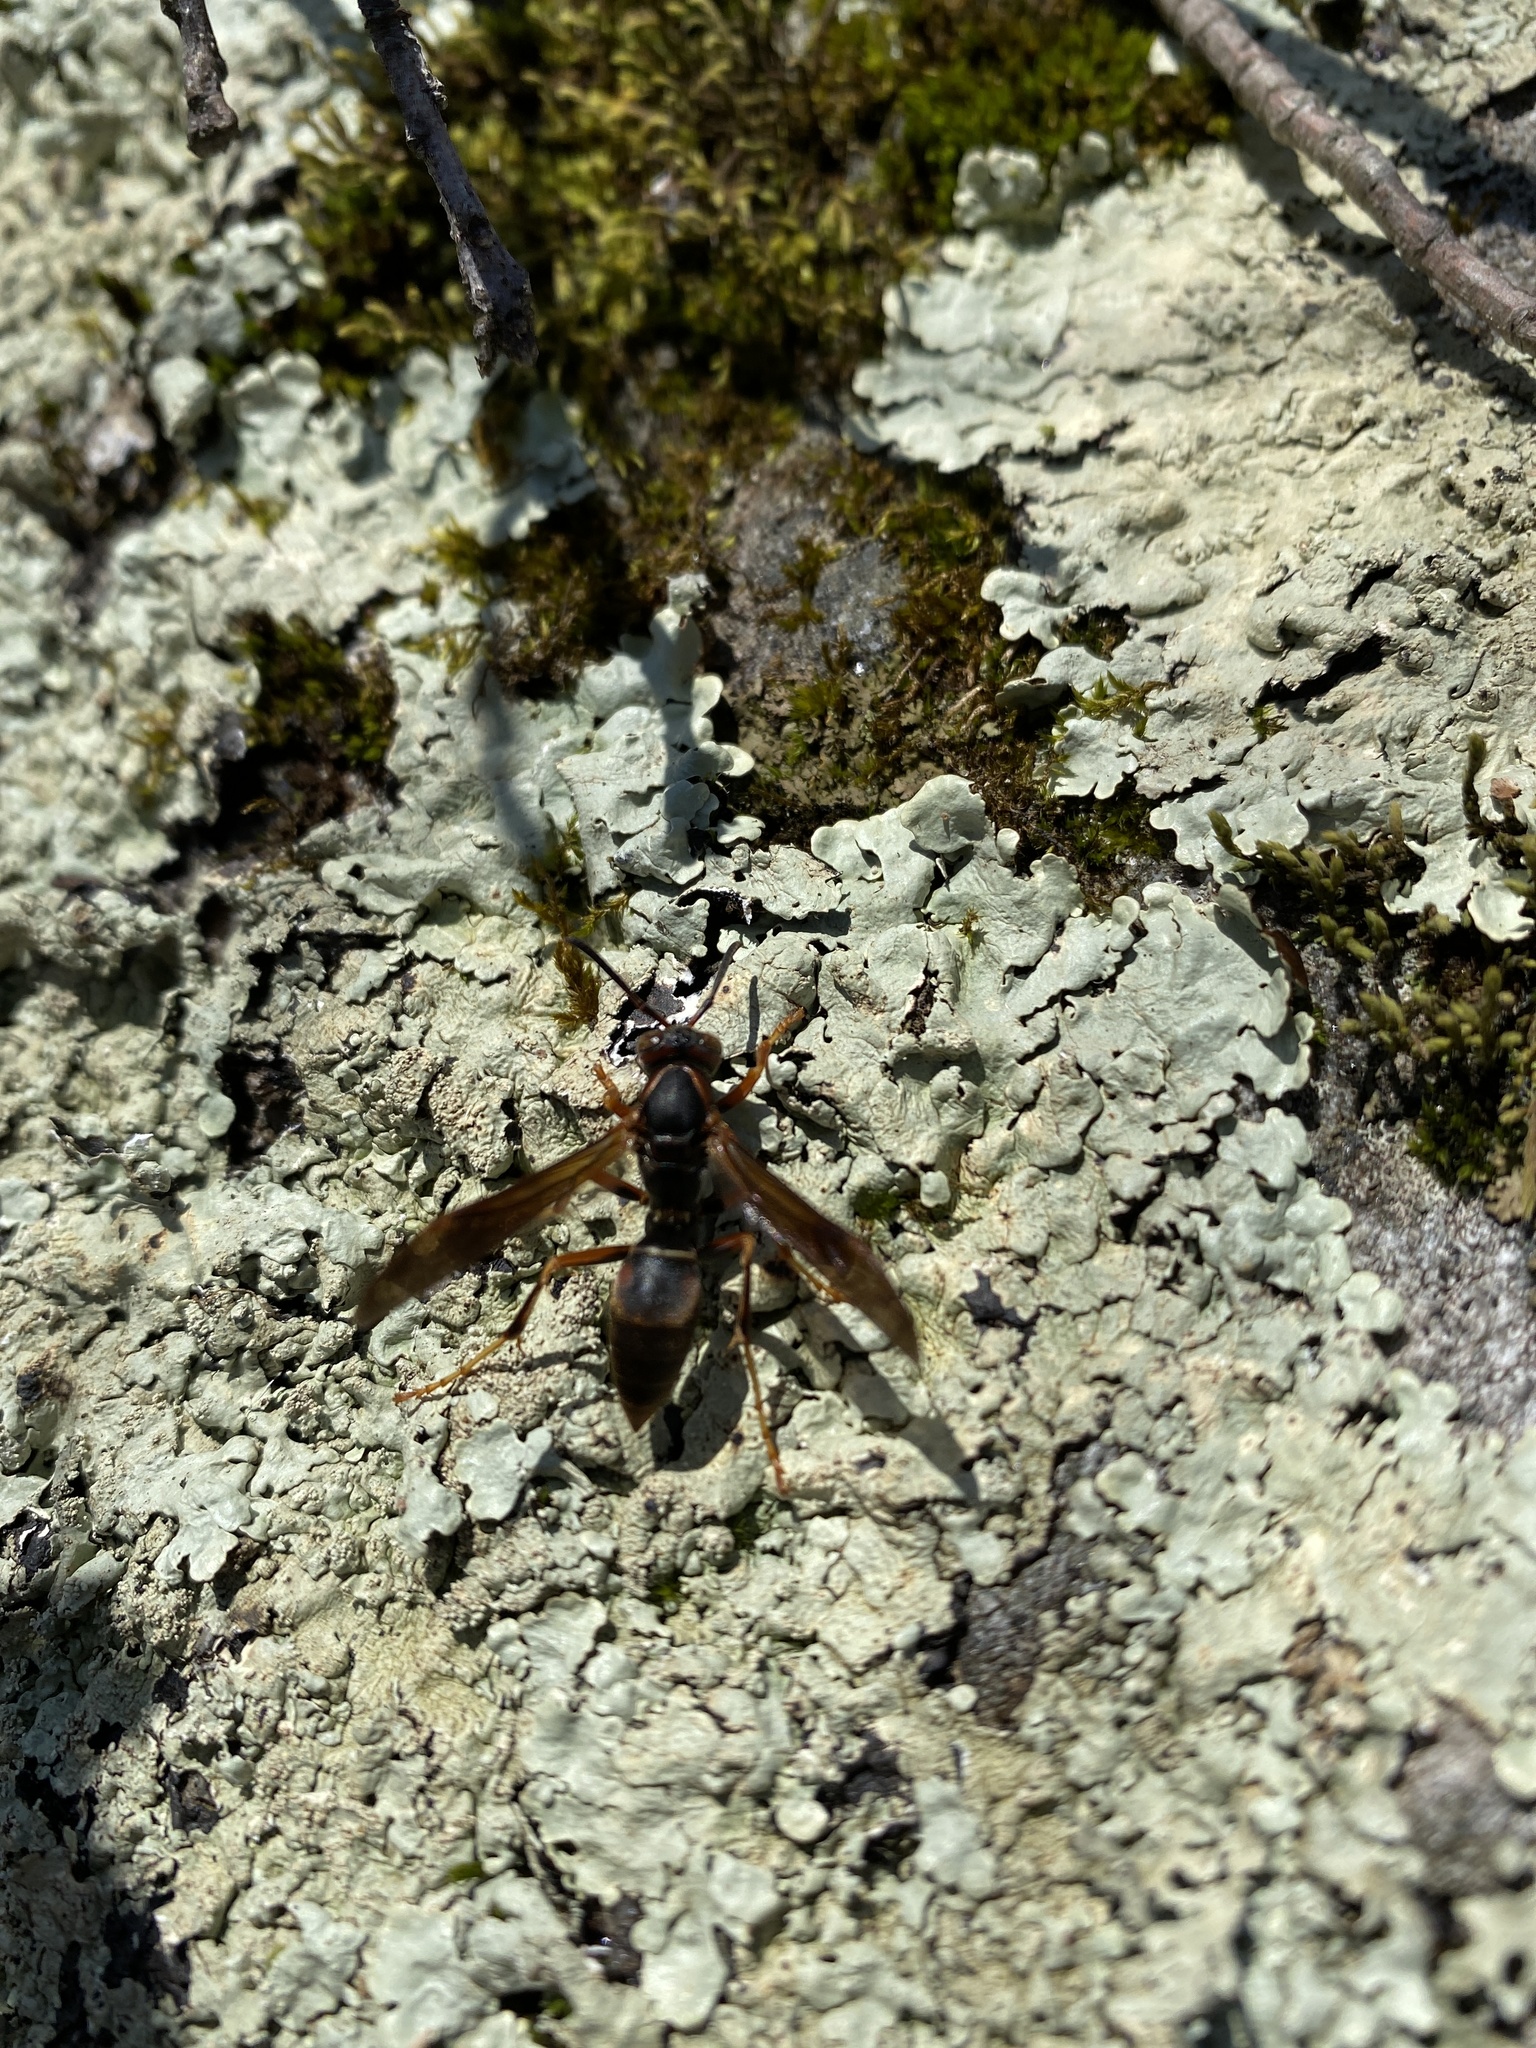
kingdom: Animalia
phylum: Arthropoda
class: Insecta
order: Hymenoptera
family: Eumenidae
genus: Polistes
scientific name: Polistes fuscatus
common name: Dark paper wasp
